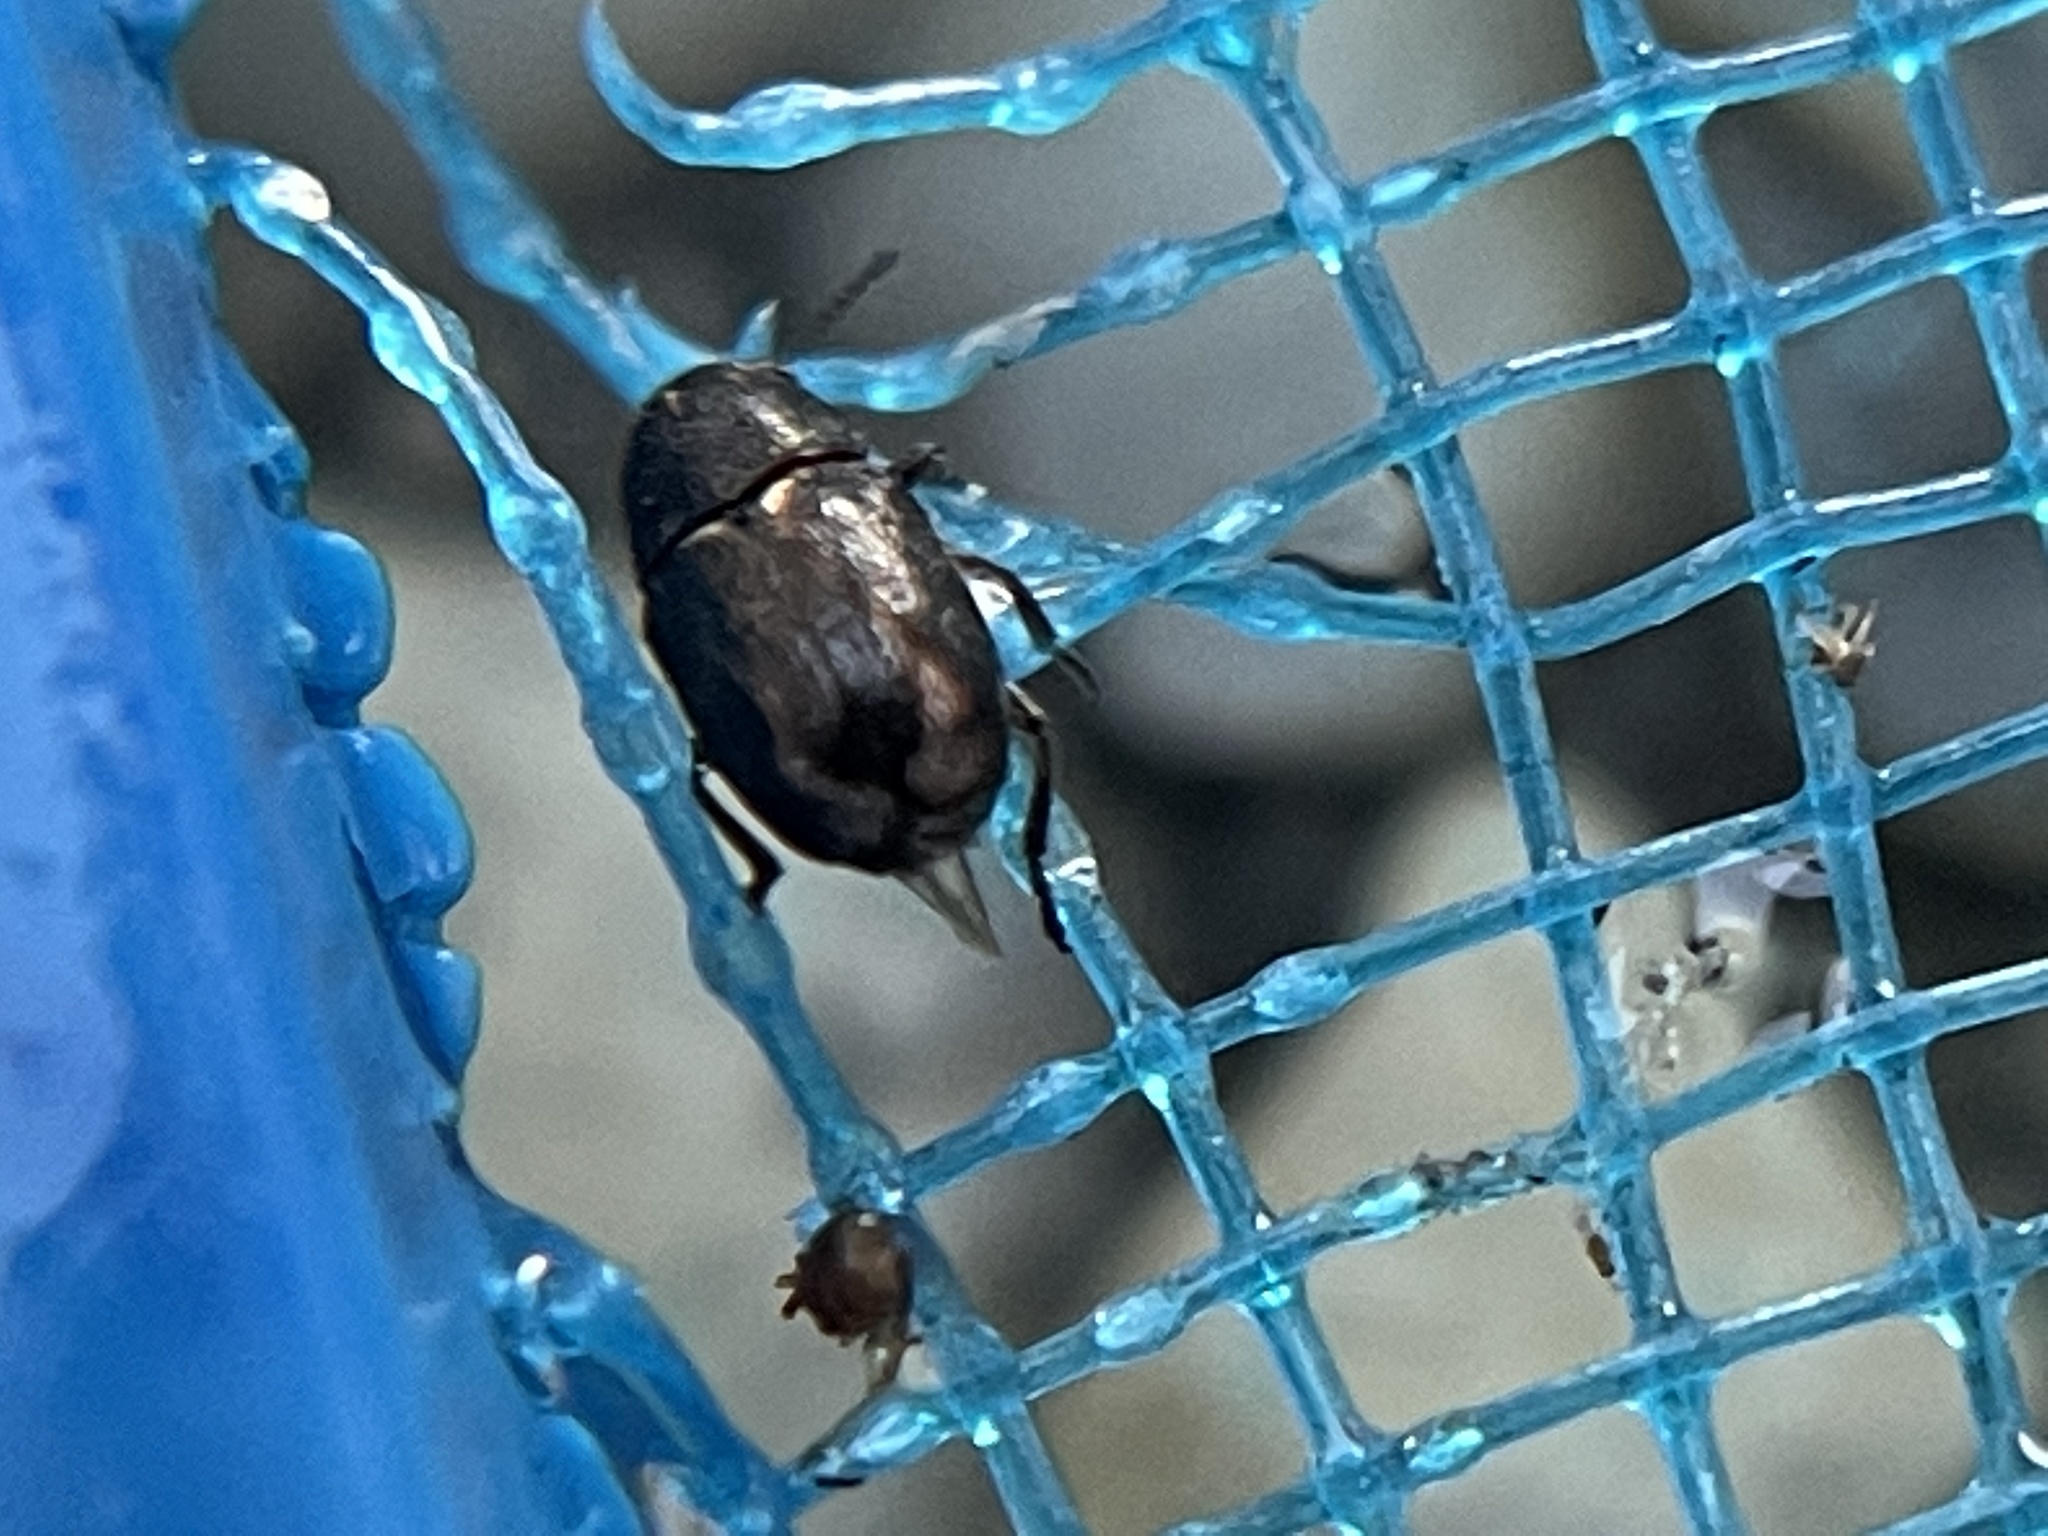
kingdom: Animalia
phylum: Arthropoda
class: Insecta
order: Coleoptera
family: Chrysomelidae
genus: Pachybrachis
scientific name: Pachybrachis hepaticus
